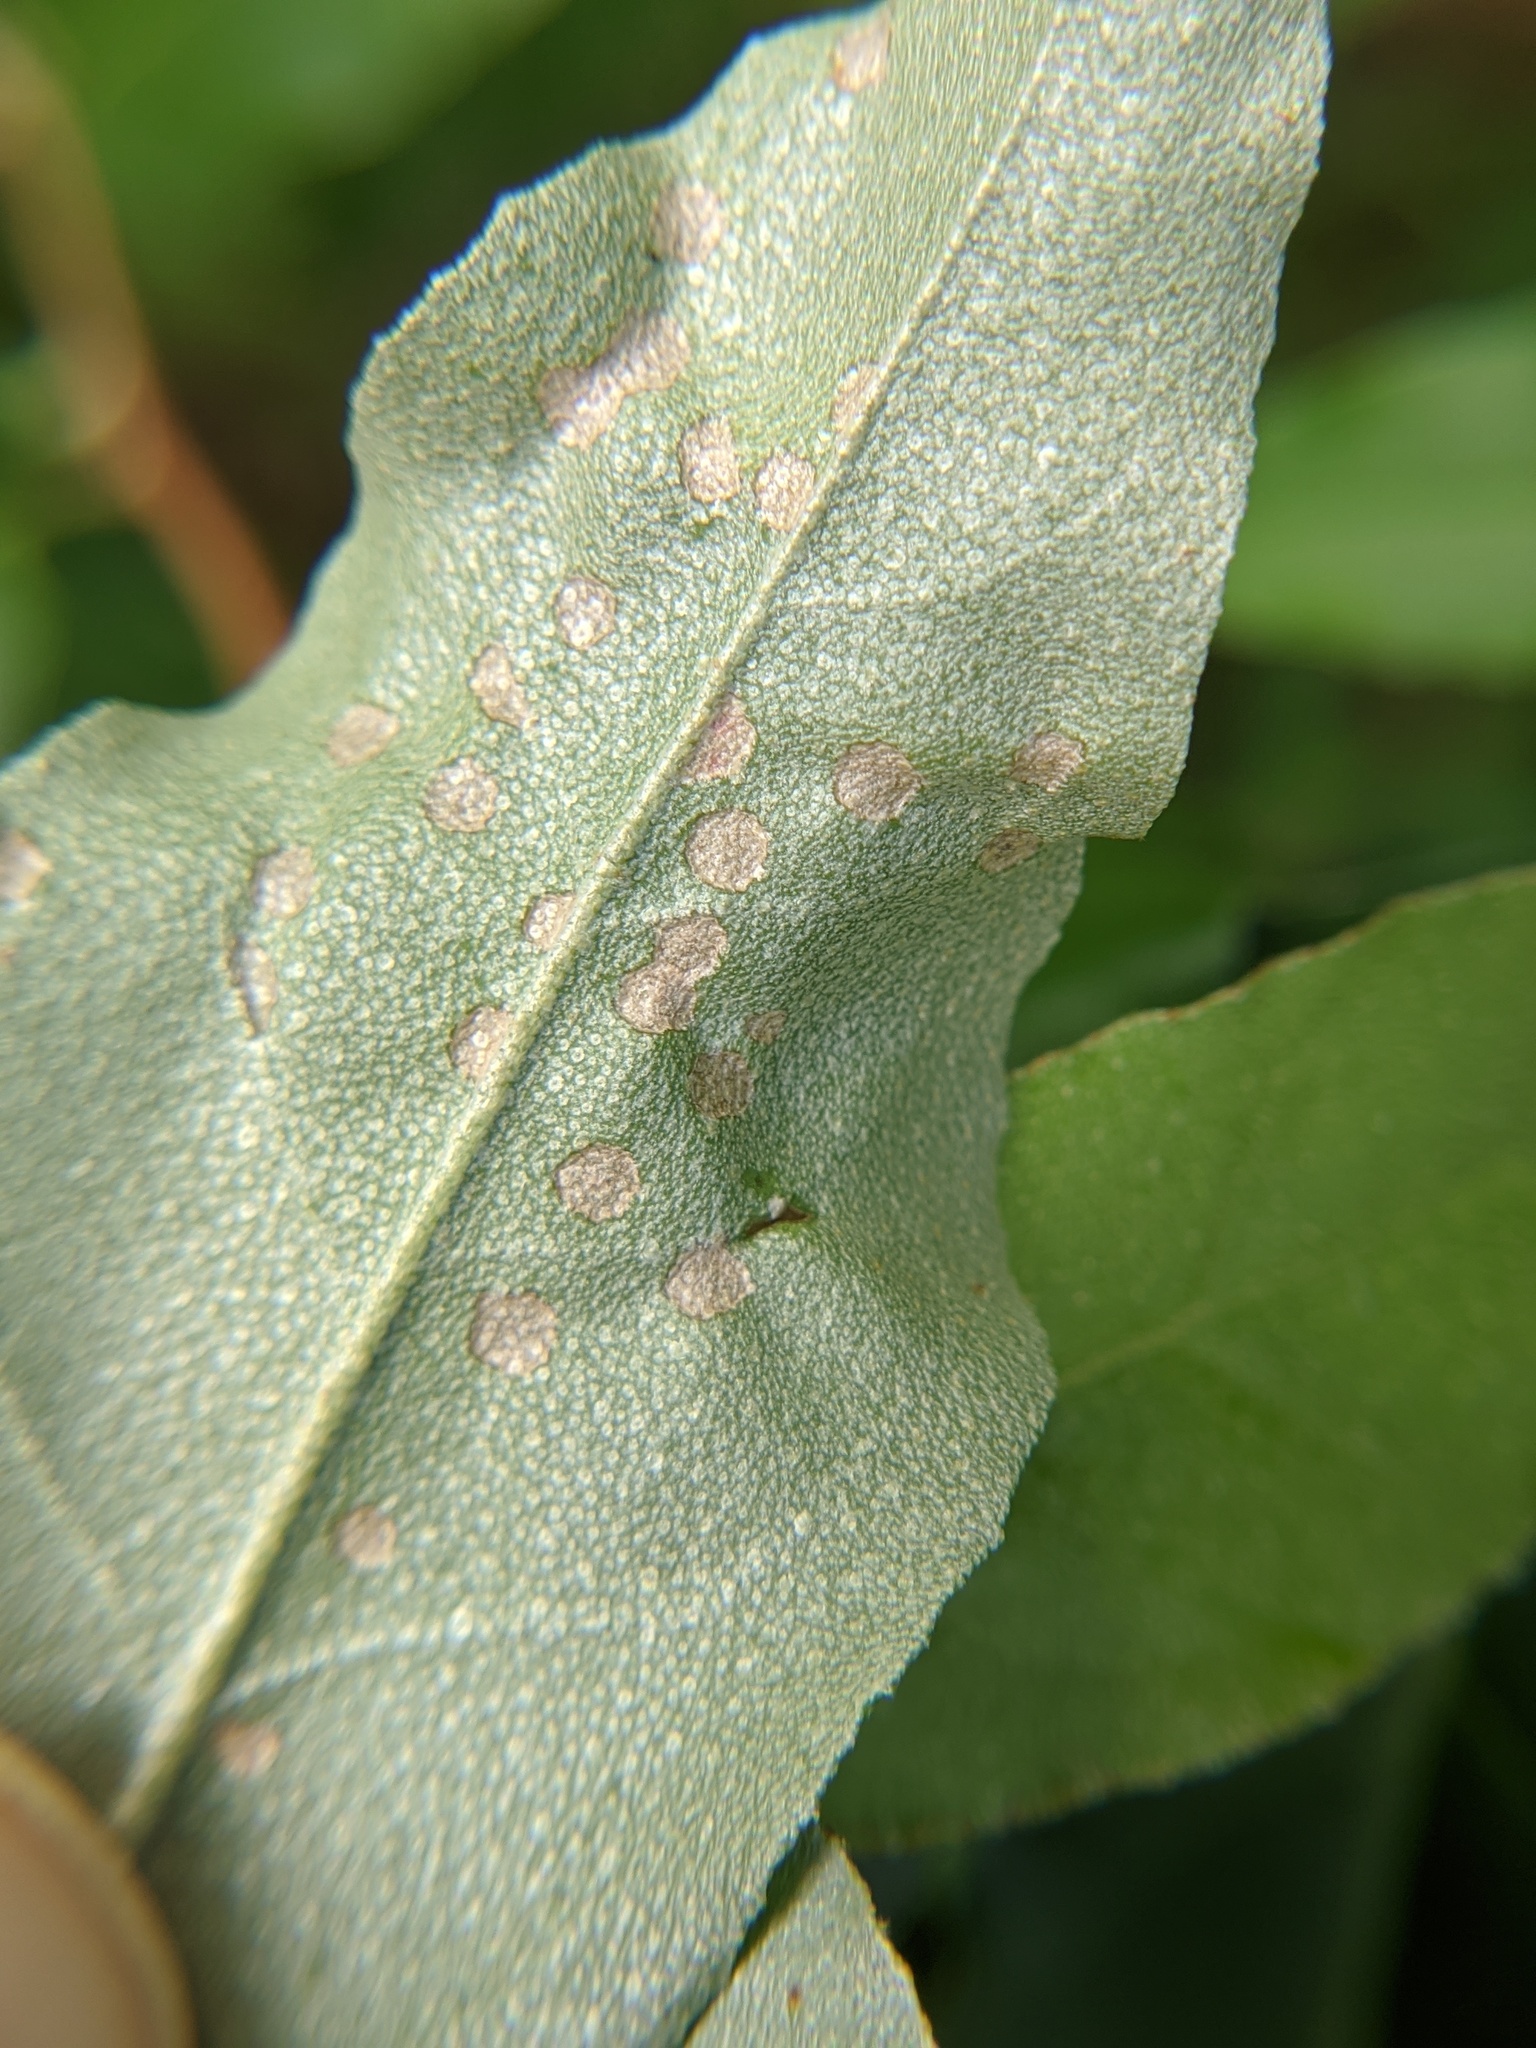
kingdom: Animalia
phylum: Arthropoda
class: Insecta
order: Hemiptera
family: Miridae
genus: Poecilocapsus
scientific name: Poecilocapsus lineatus
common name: Four-lined plant bug
